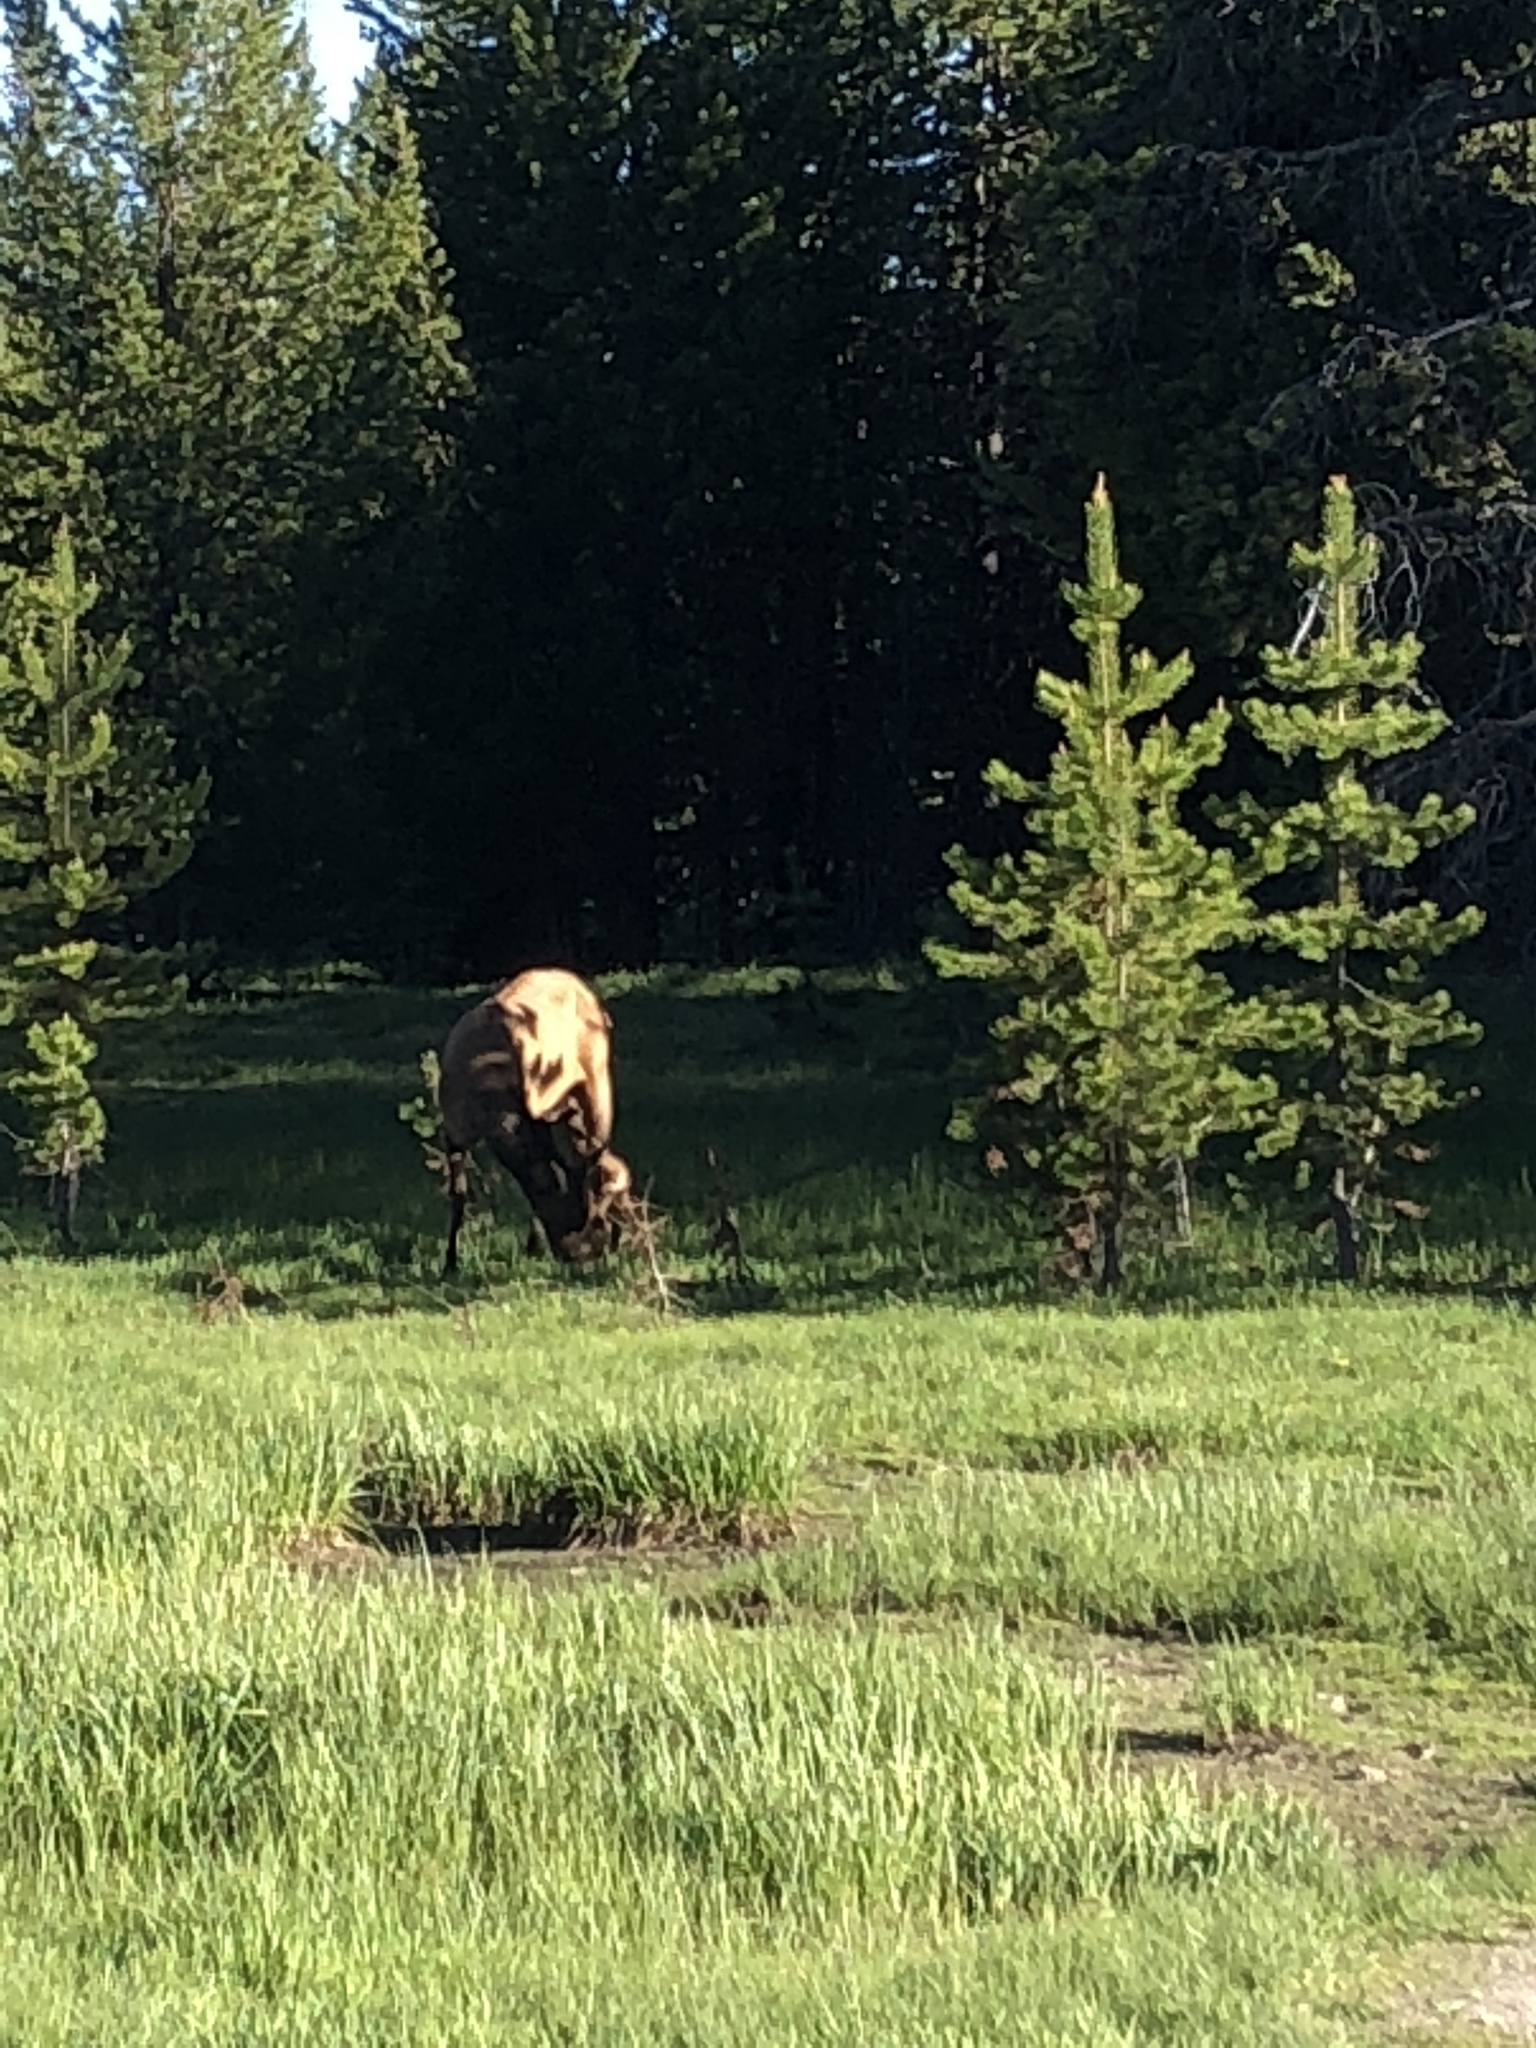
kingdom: Animalia
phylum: Chordata
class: Mammalia
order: Artiodactyla
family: Cervidae
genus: Cervus
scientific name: Cervus elaphus
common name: Red deer
